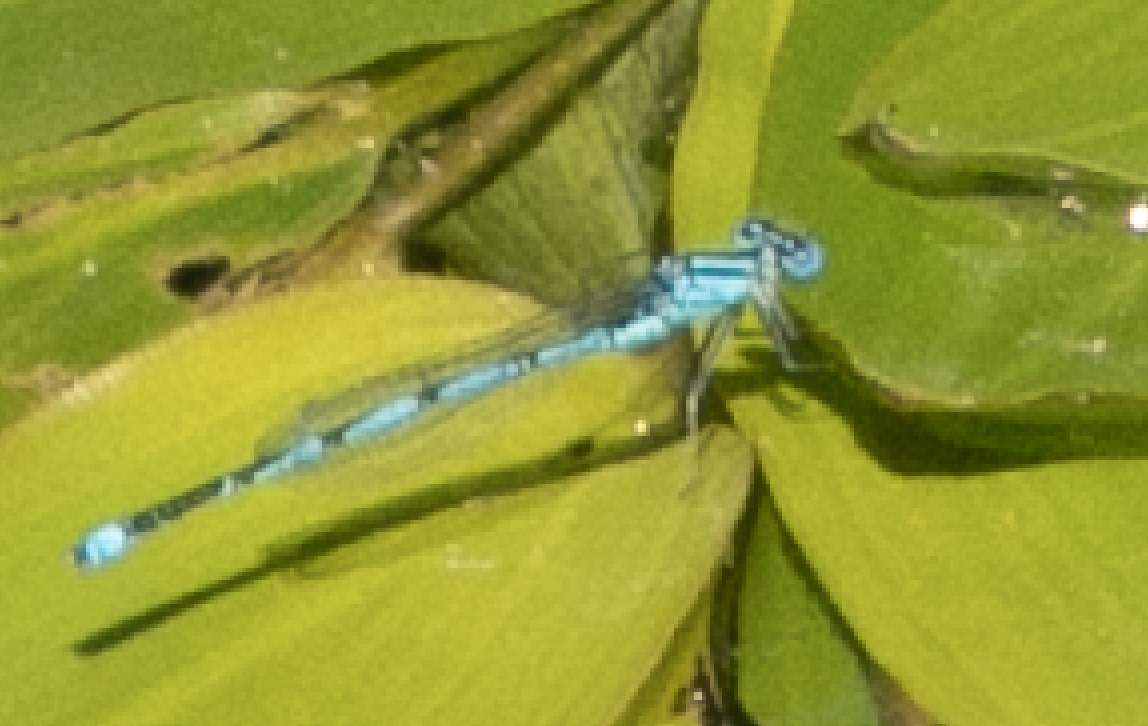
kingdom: Animalia
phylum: Arthropoda
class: Insecta
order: Odonata
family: Coenagrionidae
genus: Erythromma
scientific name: Erythromma lindenii
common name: Blue-eye
